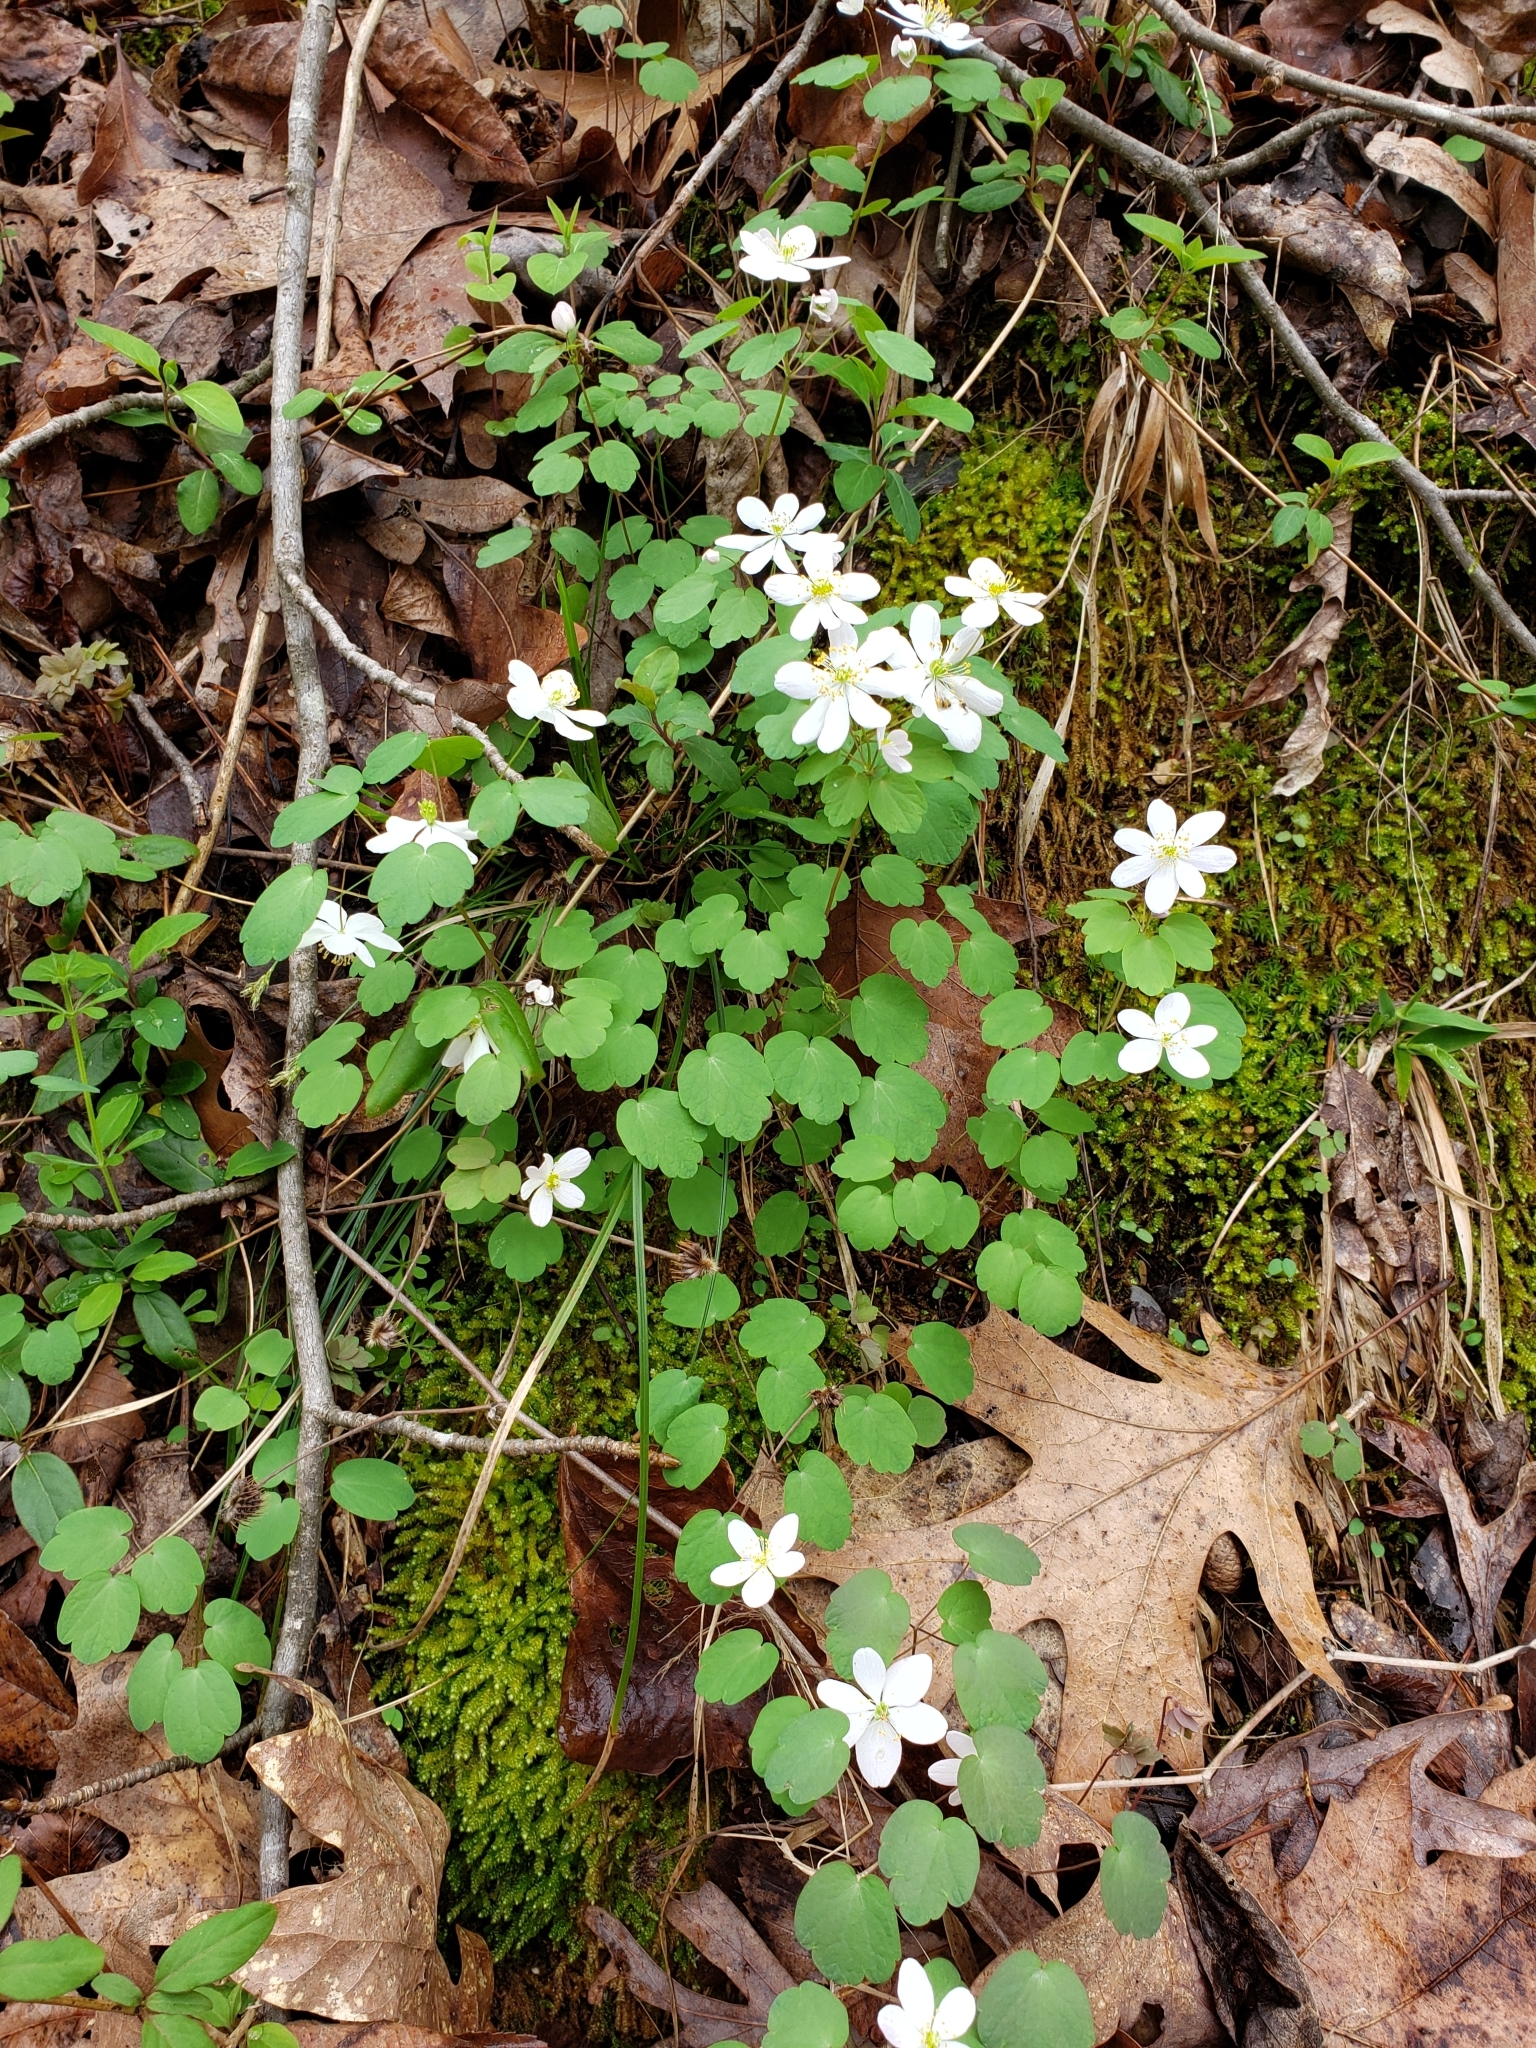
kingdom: Plantae
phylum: Tracheophyta
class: Magnoliopsida
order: Ranunculales
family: Ranunculaceae
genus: Thalictrum
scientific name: Thalictrum thalictroides
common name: Rue-anemone
